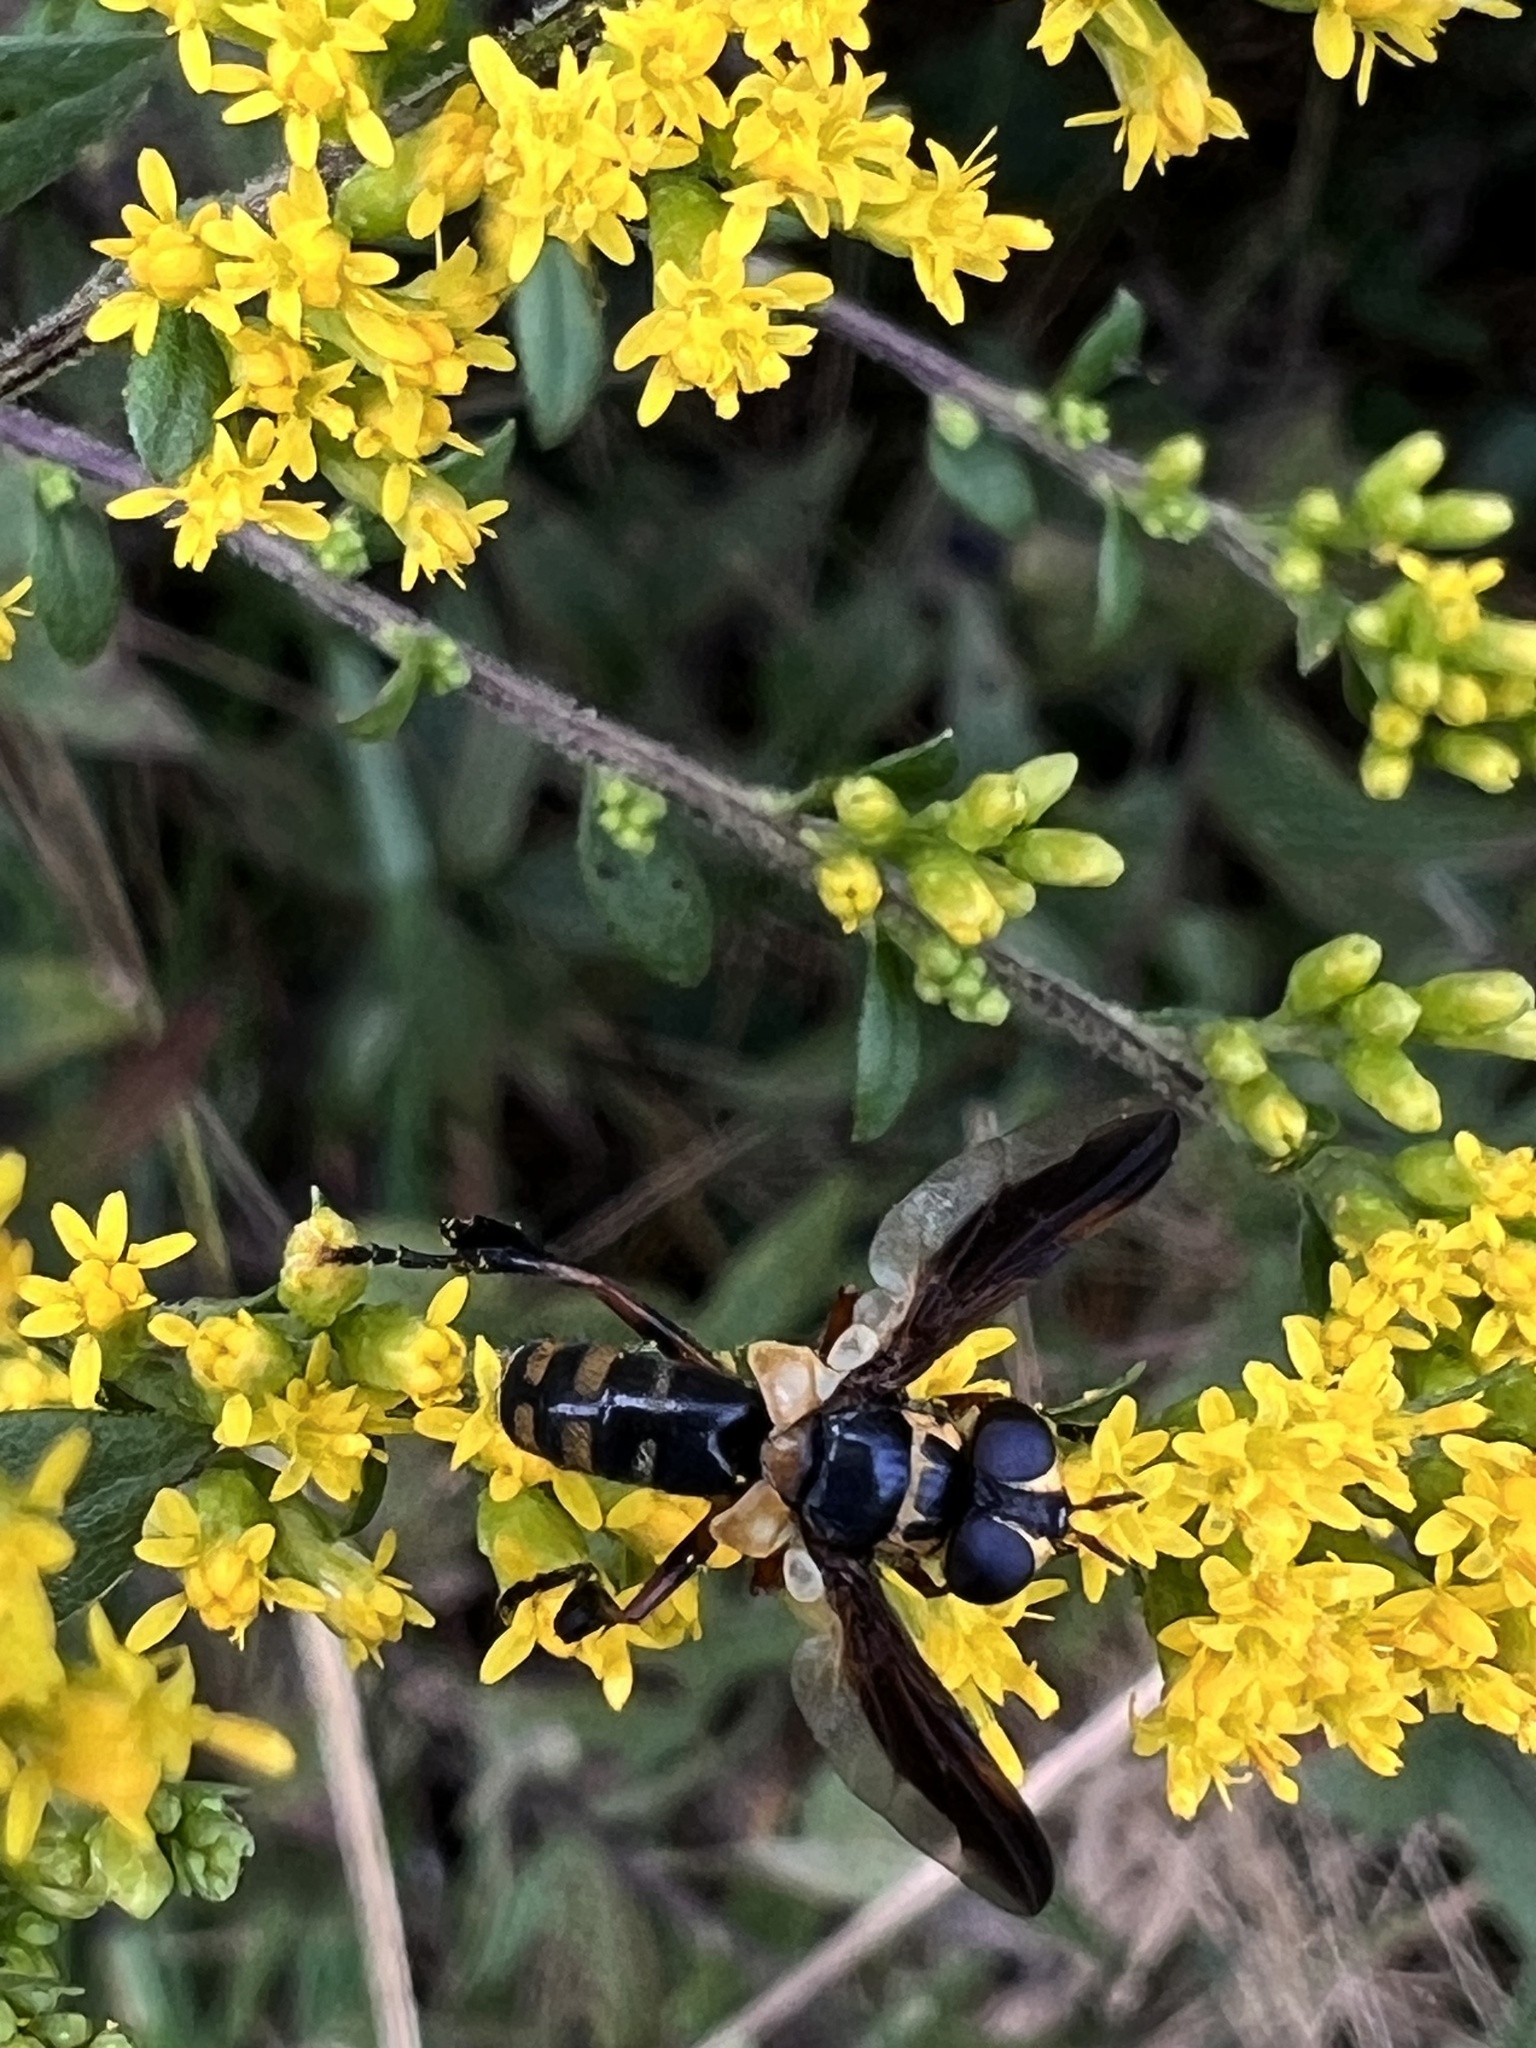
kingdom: Animalia
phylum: Arthropoda
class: Insecta
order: Diptera
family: Tachinidae
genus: Trichopoda
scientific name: Trichopoda plumipes
